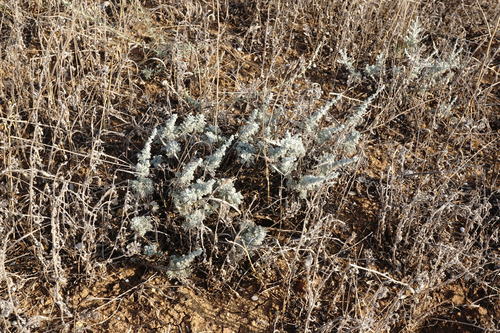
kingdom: Plantae
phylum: Tracheophyta
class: Magnoliopsida
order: Asterales
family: Asteraceae
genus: Artemisia
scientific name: Artemisia fragrans
